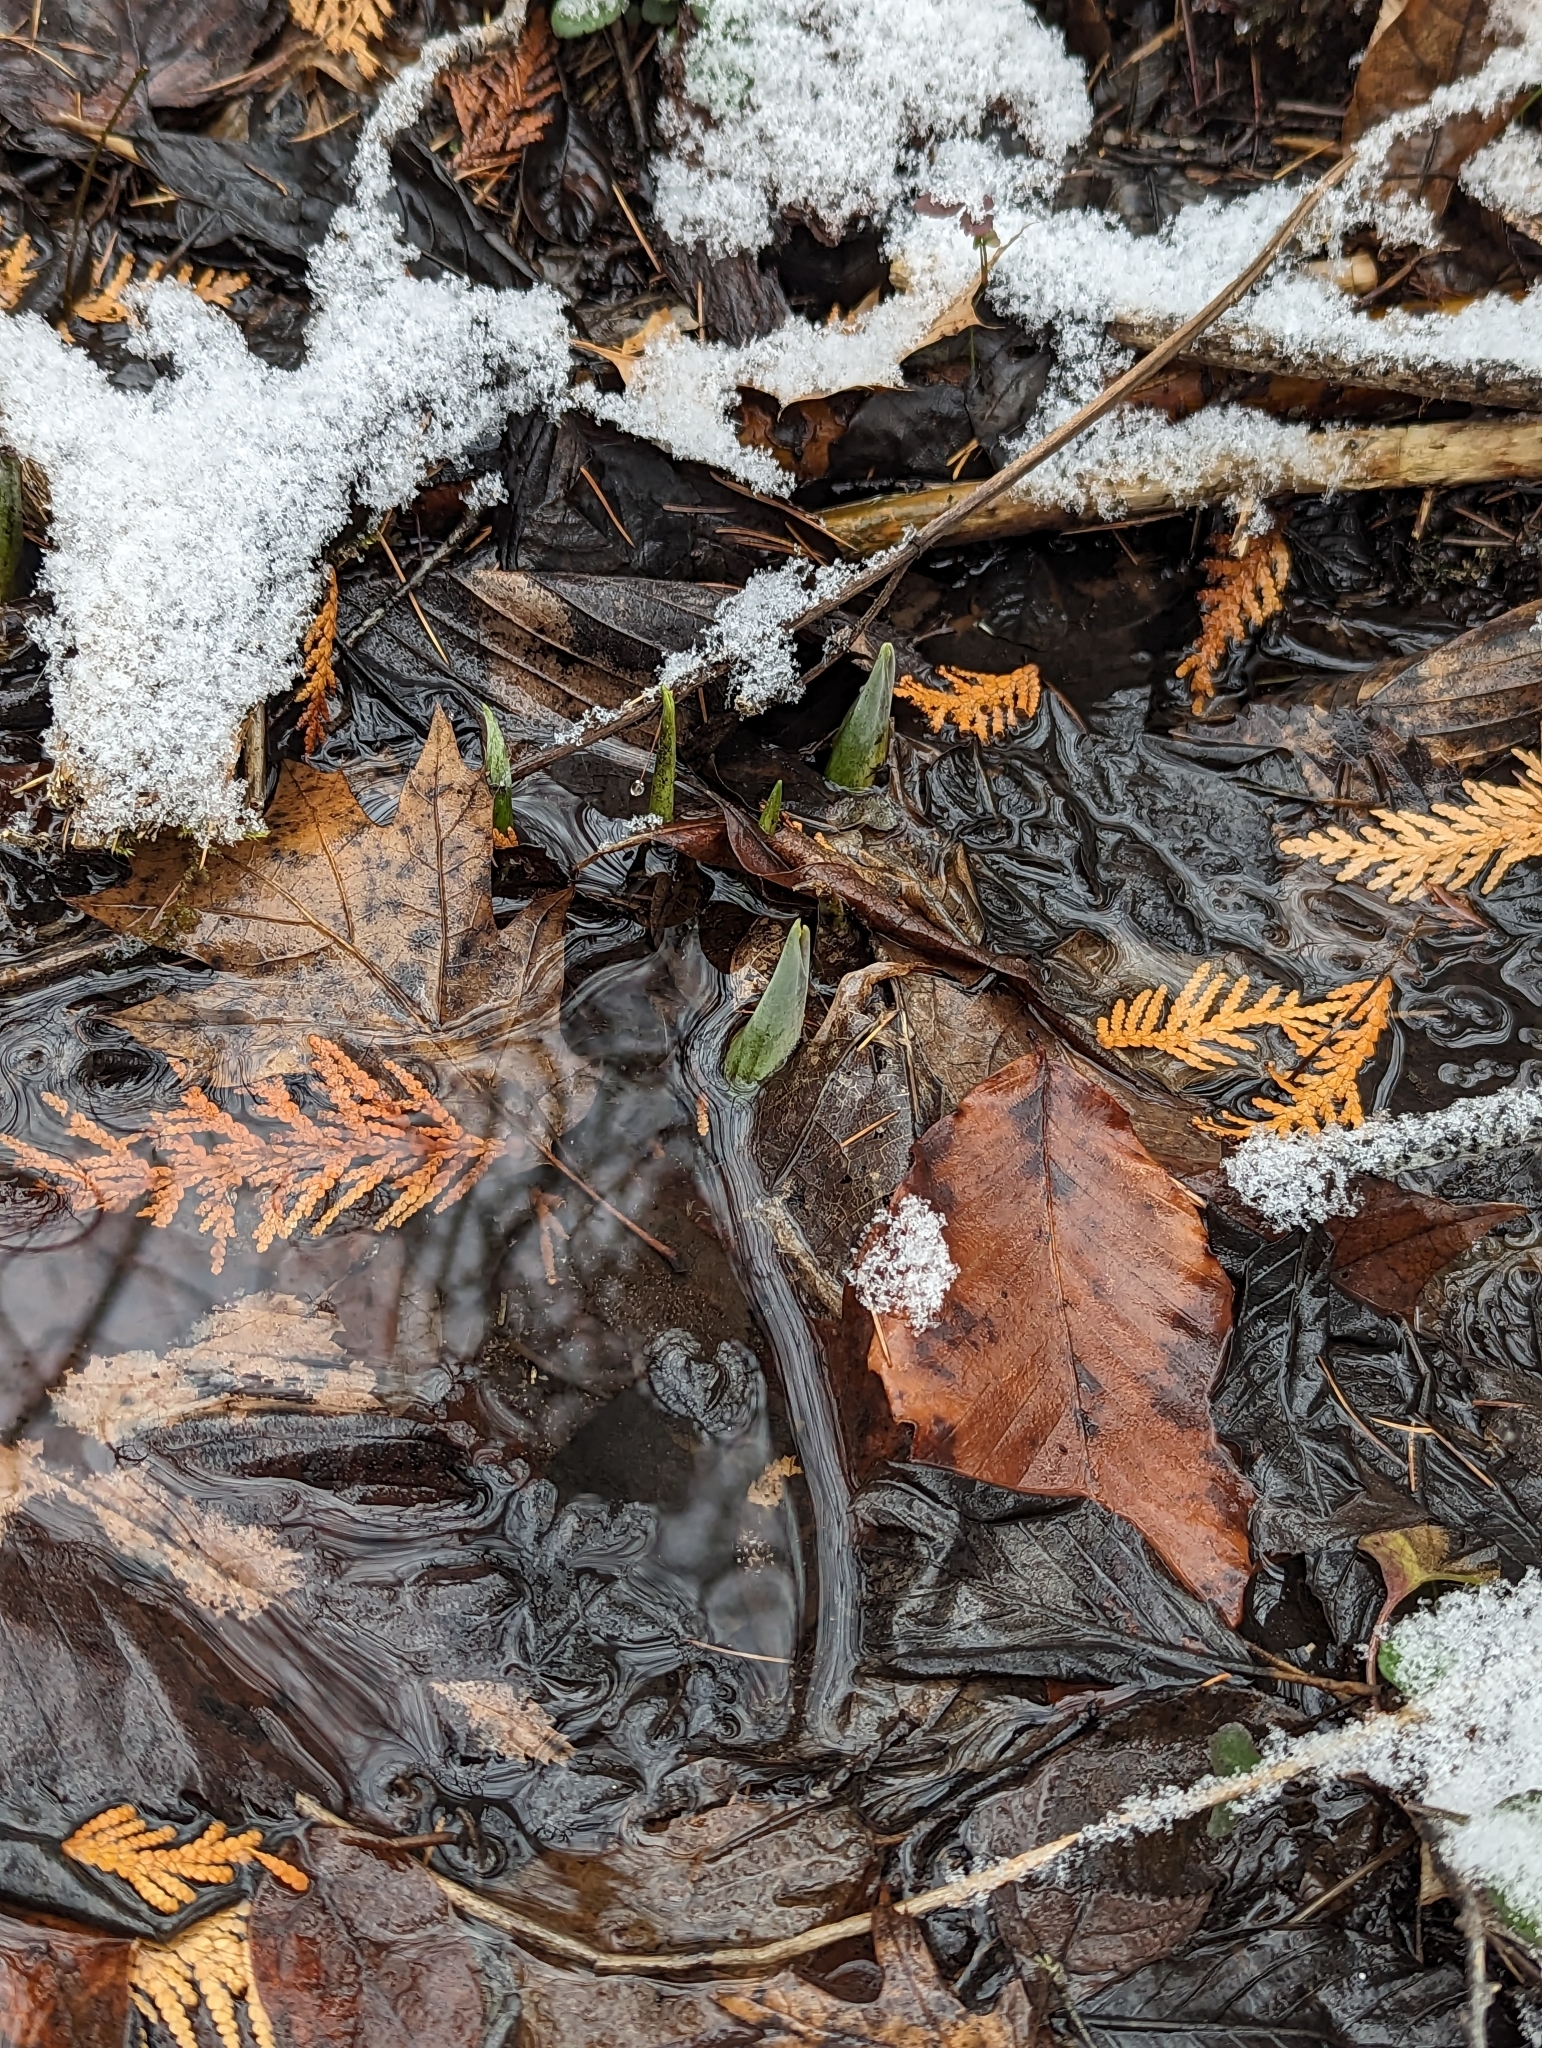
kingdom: Plantae
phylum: Tracheophyta
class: Liliopsida
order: Alismatales
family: Araceae
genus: Symplocarpus
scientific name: Symplocarpus foetidus
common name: Eastern skunk cabbage
